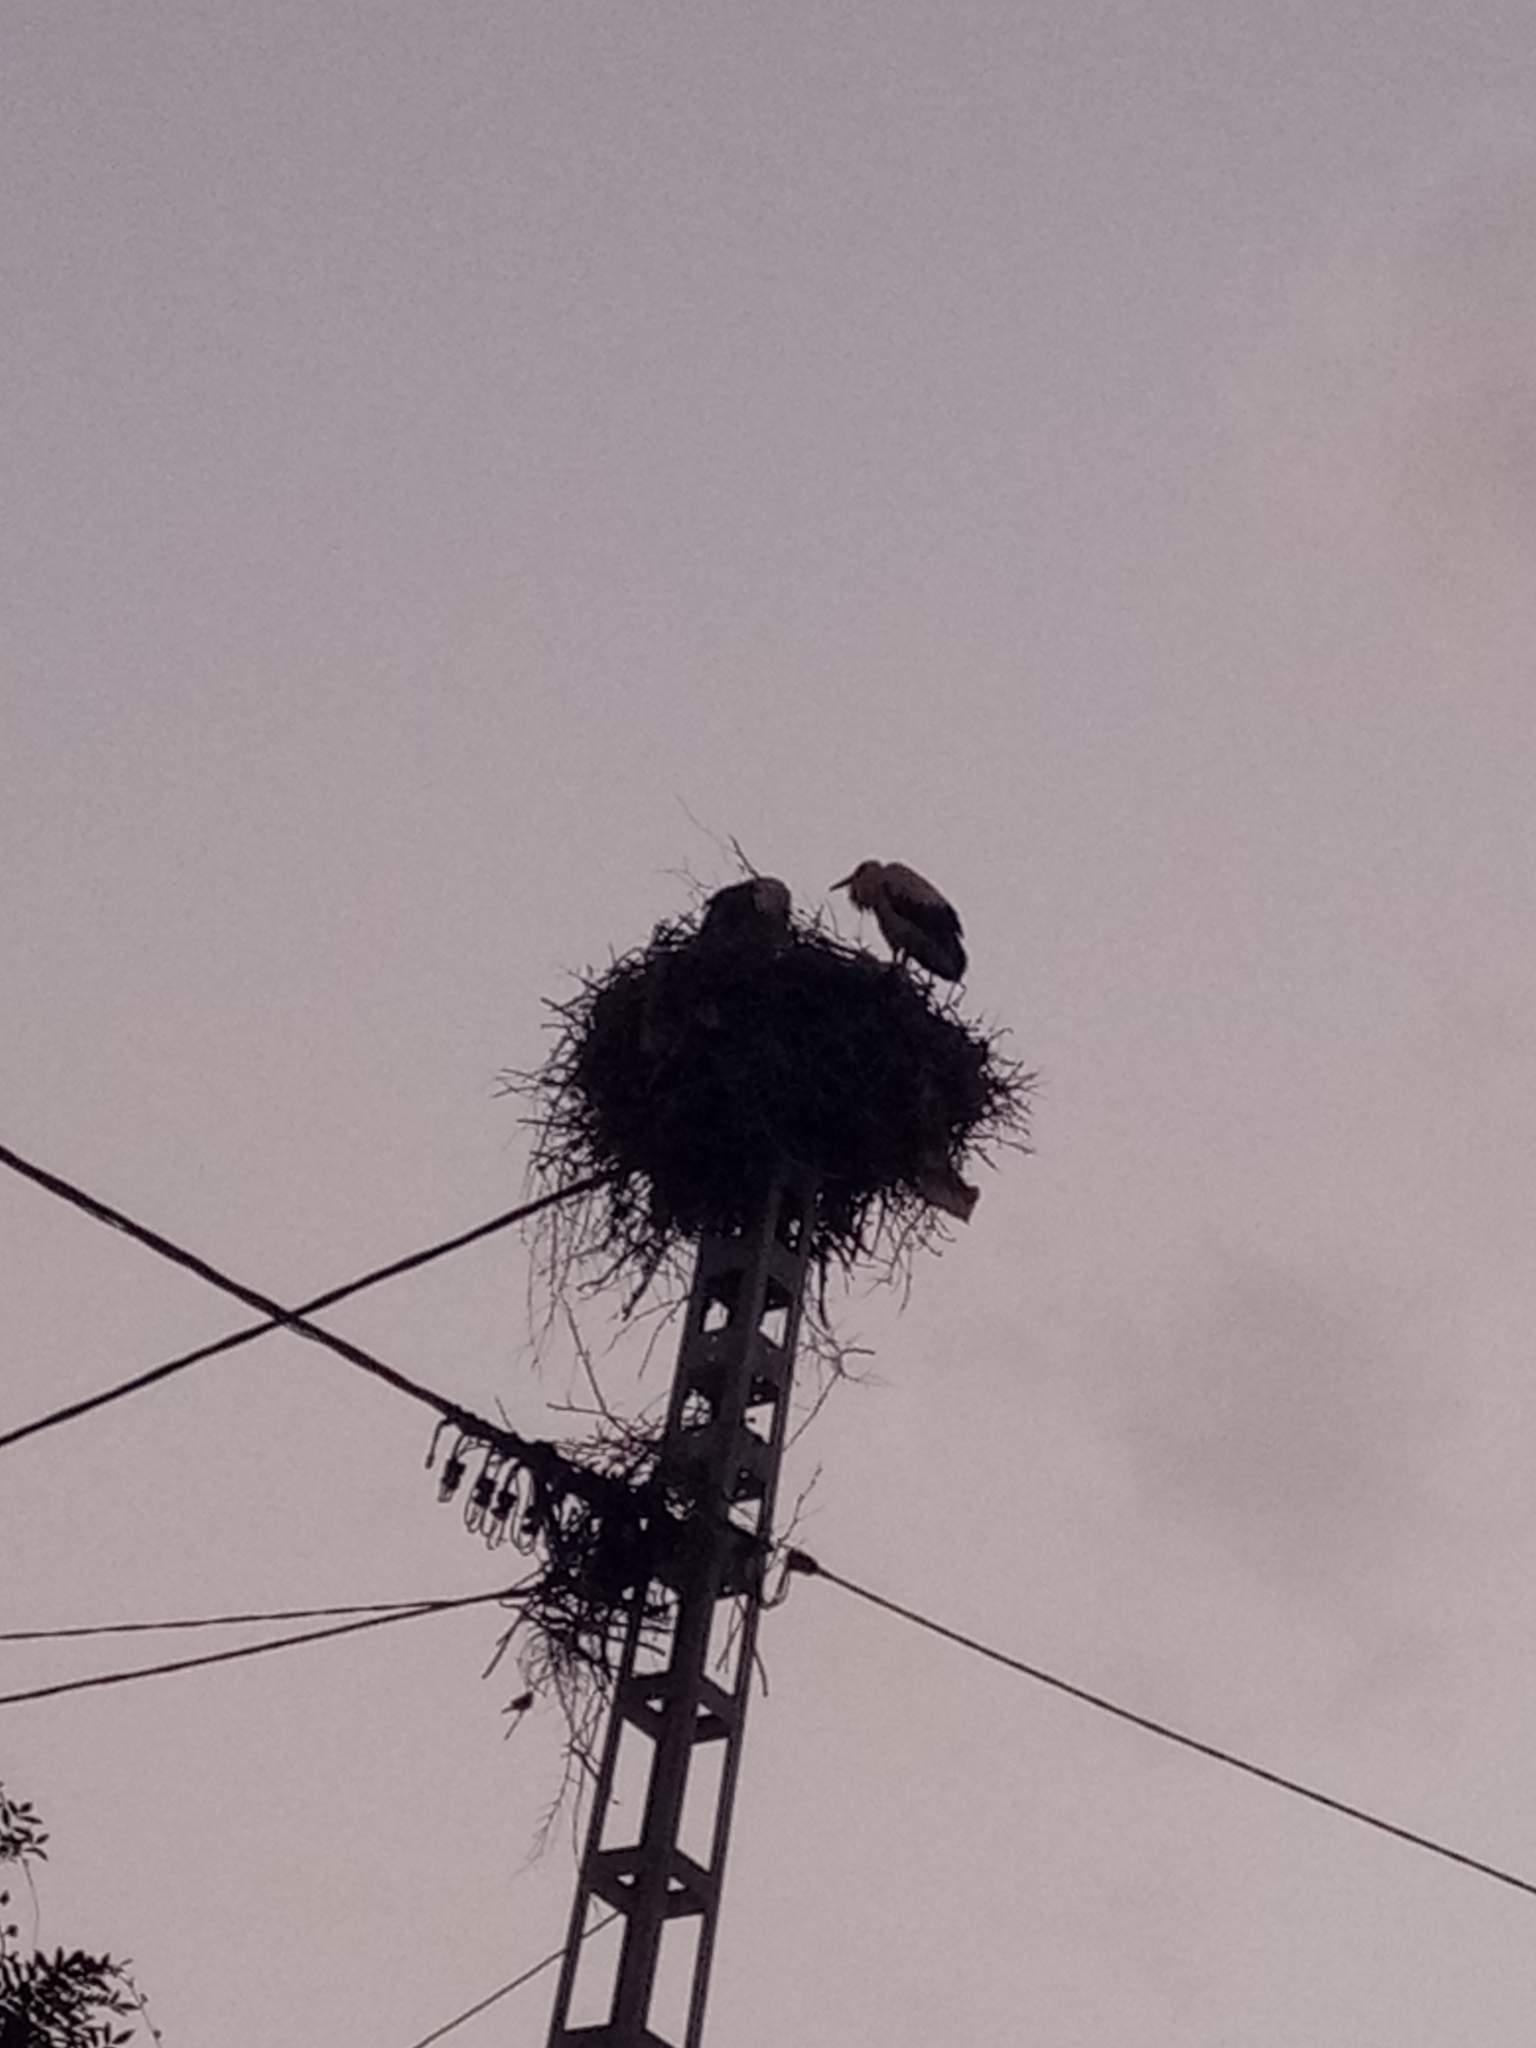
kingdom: Animalia
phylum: Chordata
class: Aves
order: Ciconiiformes
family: Ciconiidae
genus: Ciconia
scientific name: Ciconia ciconia
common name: White stork
